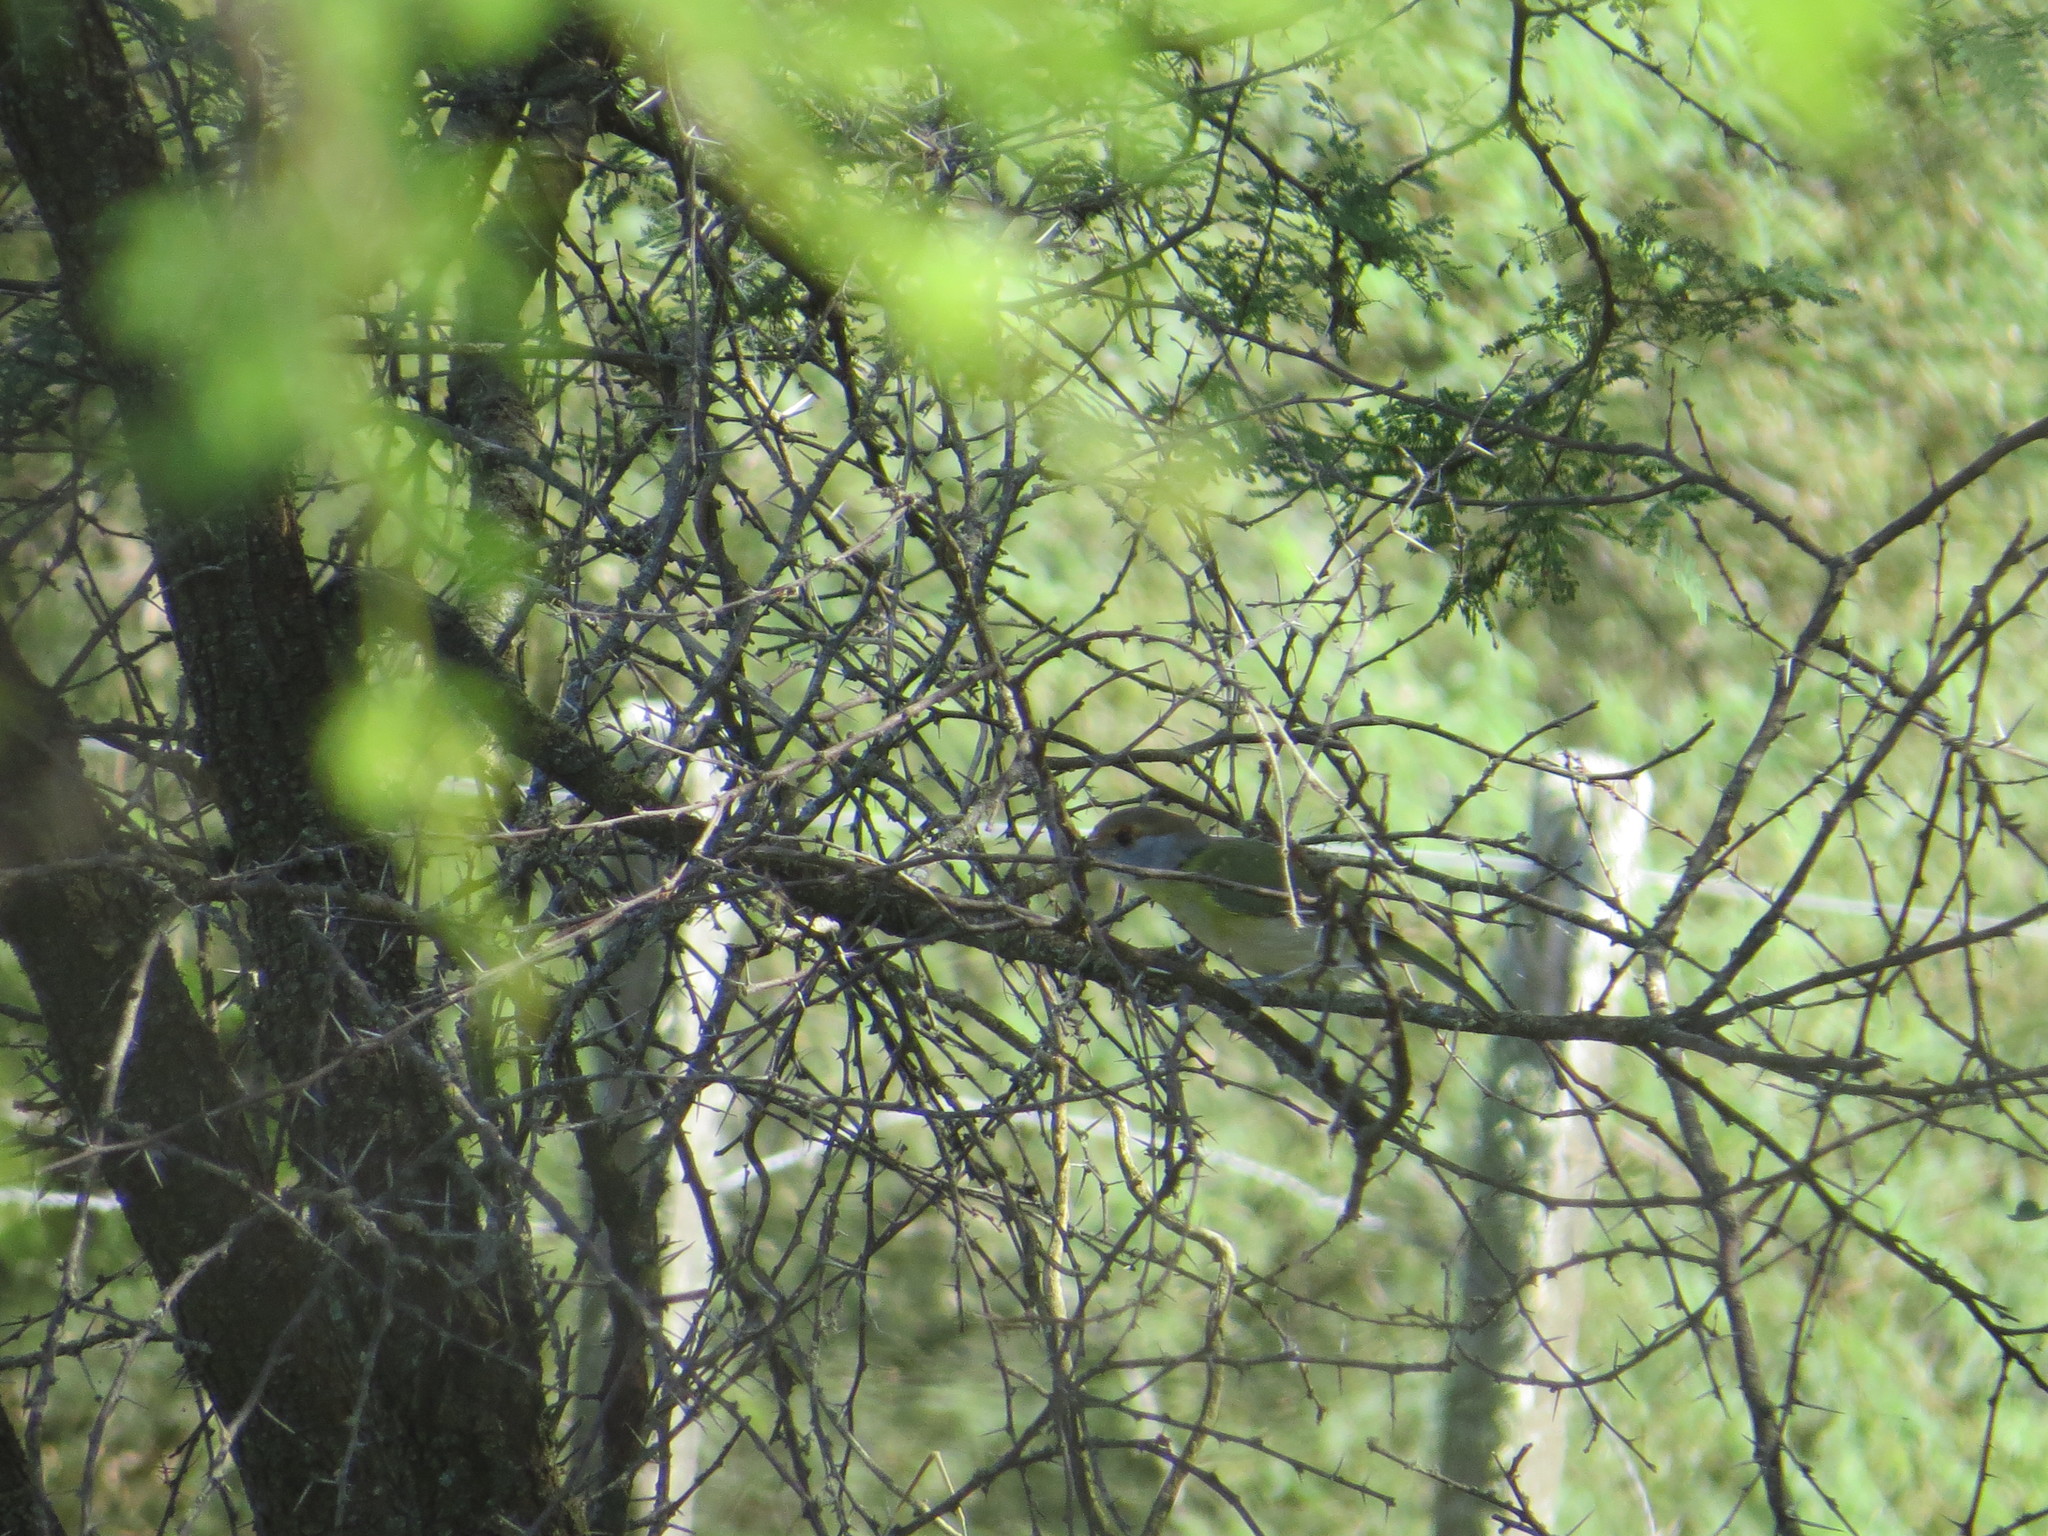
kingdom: Animalia
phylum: Chordata
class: Aves
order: Passeriformes
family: Vireonidae
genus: Cyclarhis
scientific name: Cyclarhis gujanensis
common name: Rufous-browed peppershrike
